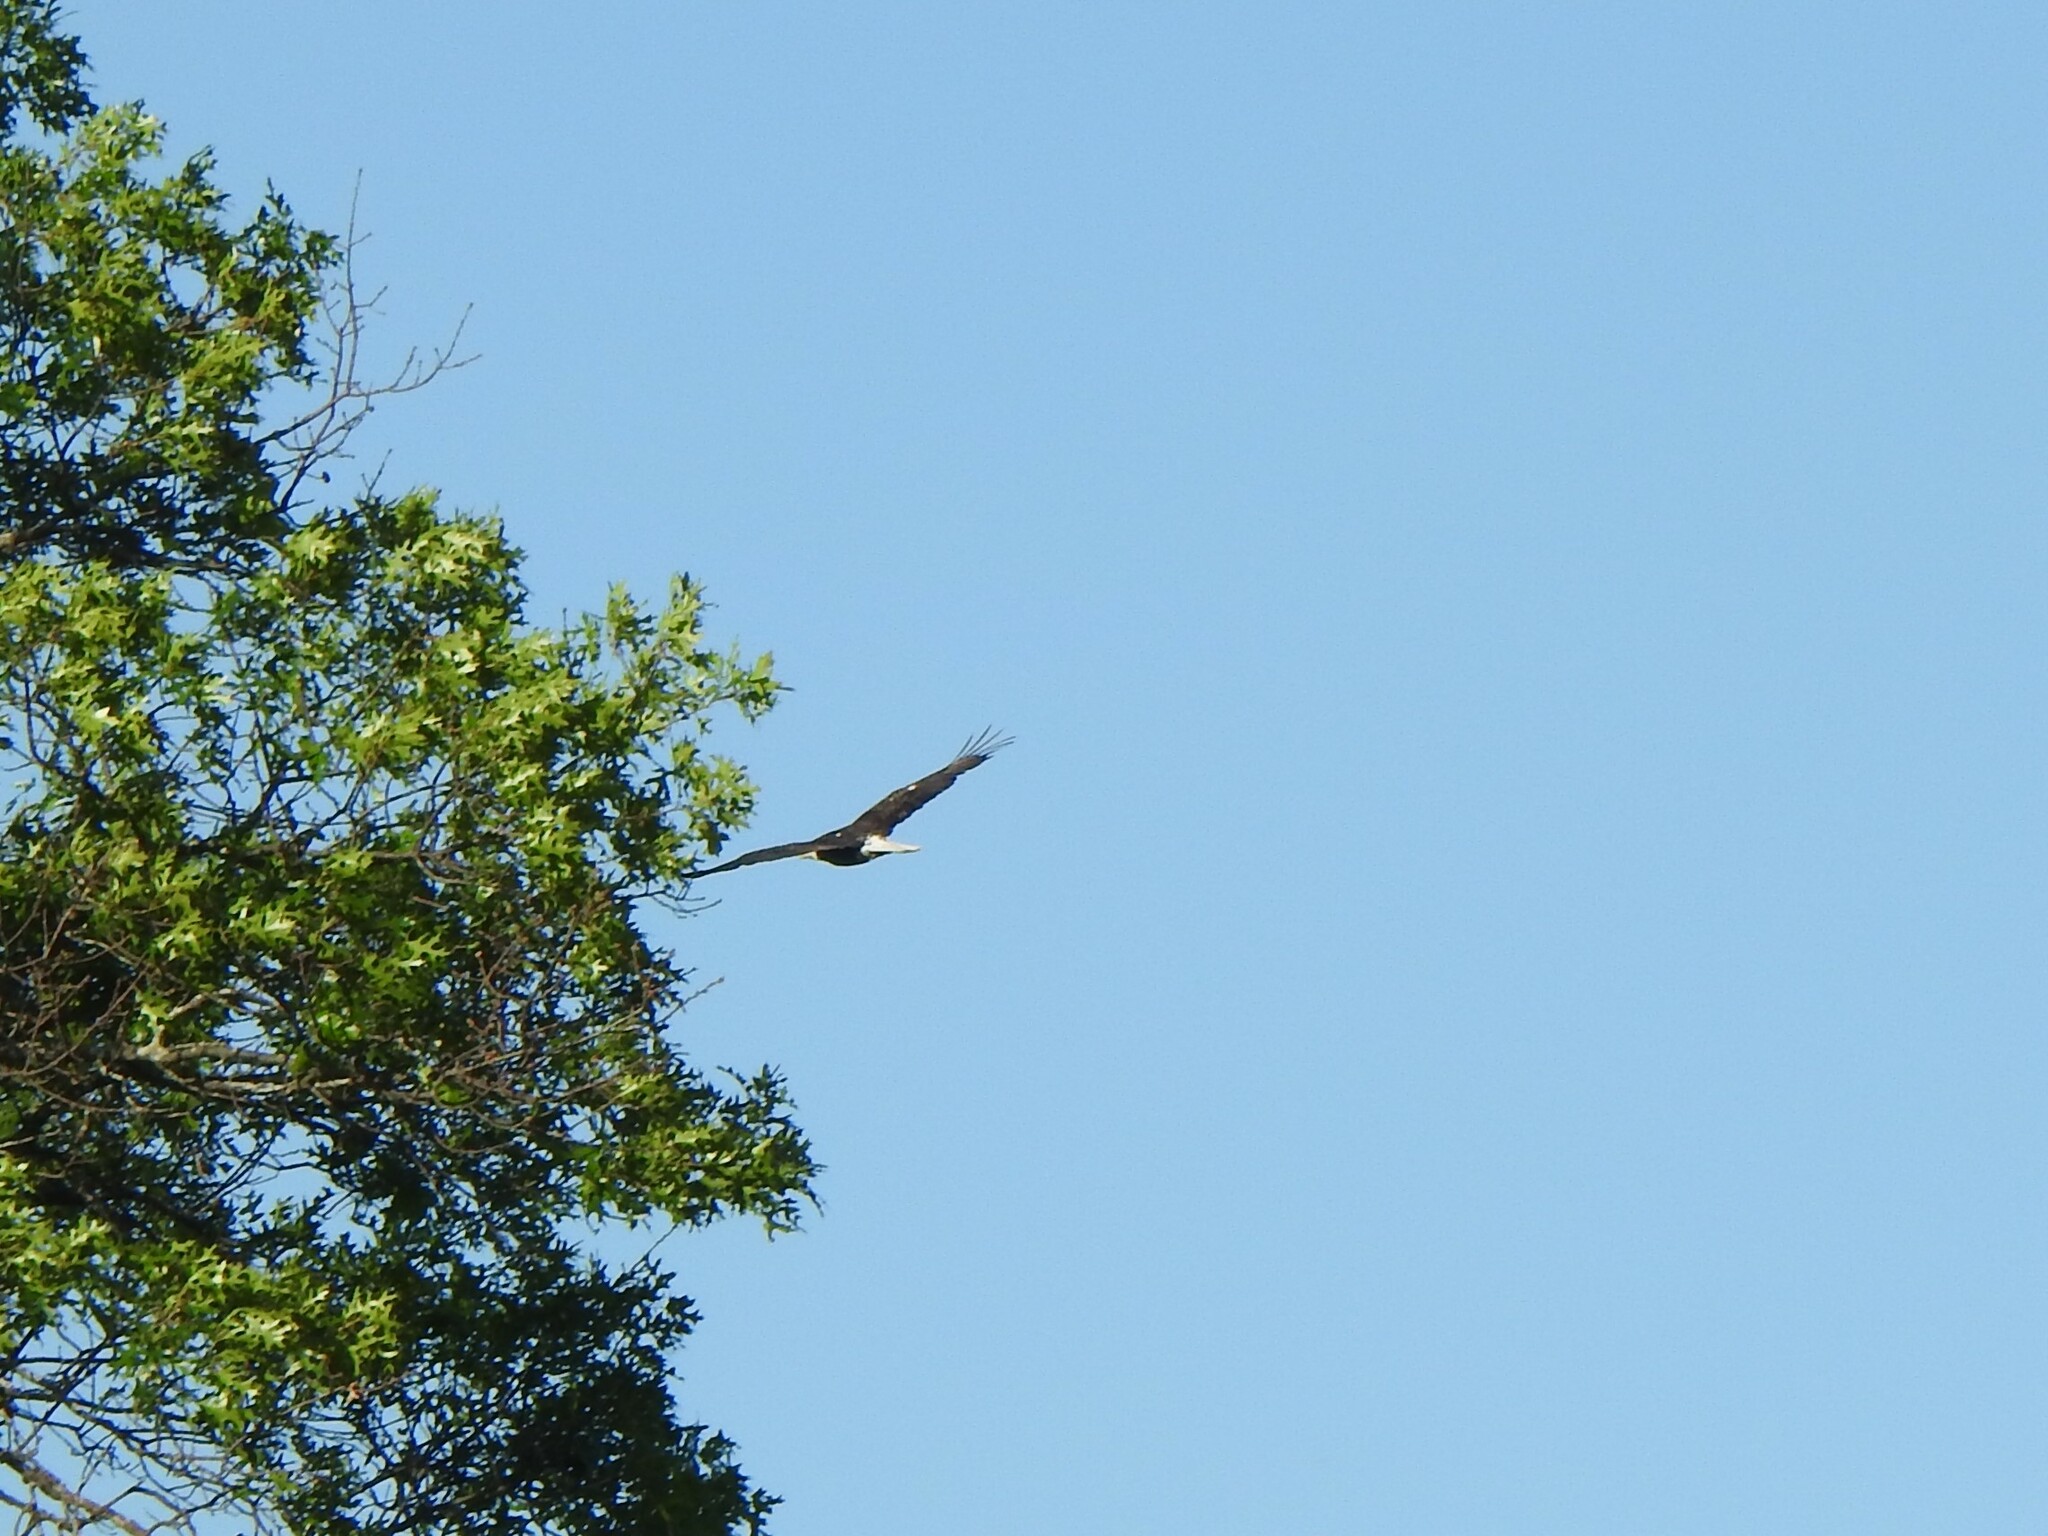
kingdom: Animalia
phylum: Chordata
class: Aves
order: Accipitriformes
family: Accipitridae
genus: Haliaeetus
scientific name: Haliaeetus leucocephalus
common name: Bald eagle
